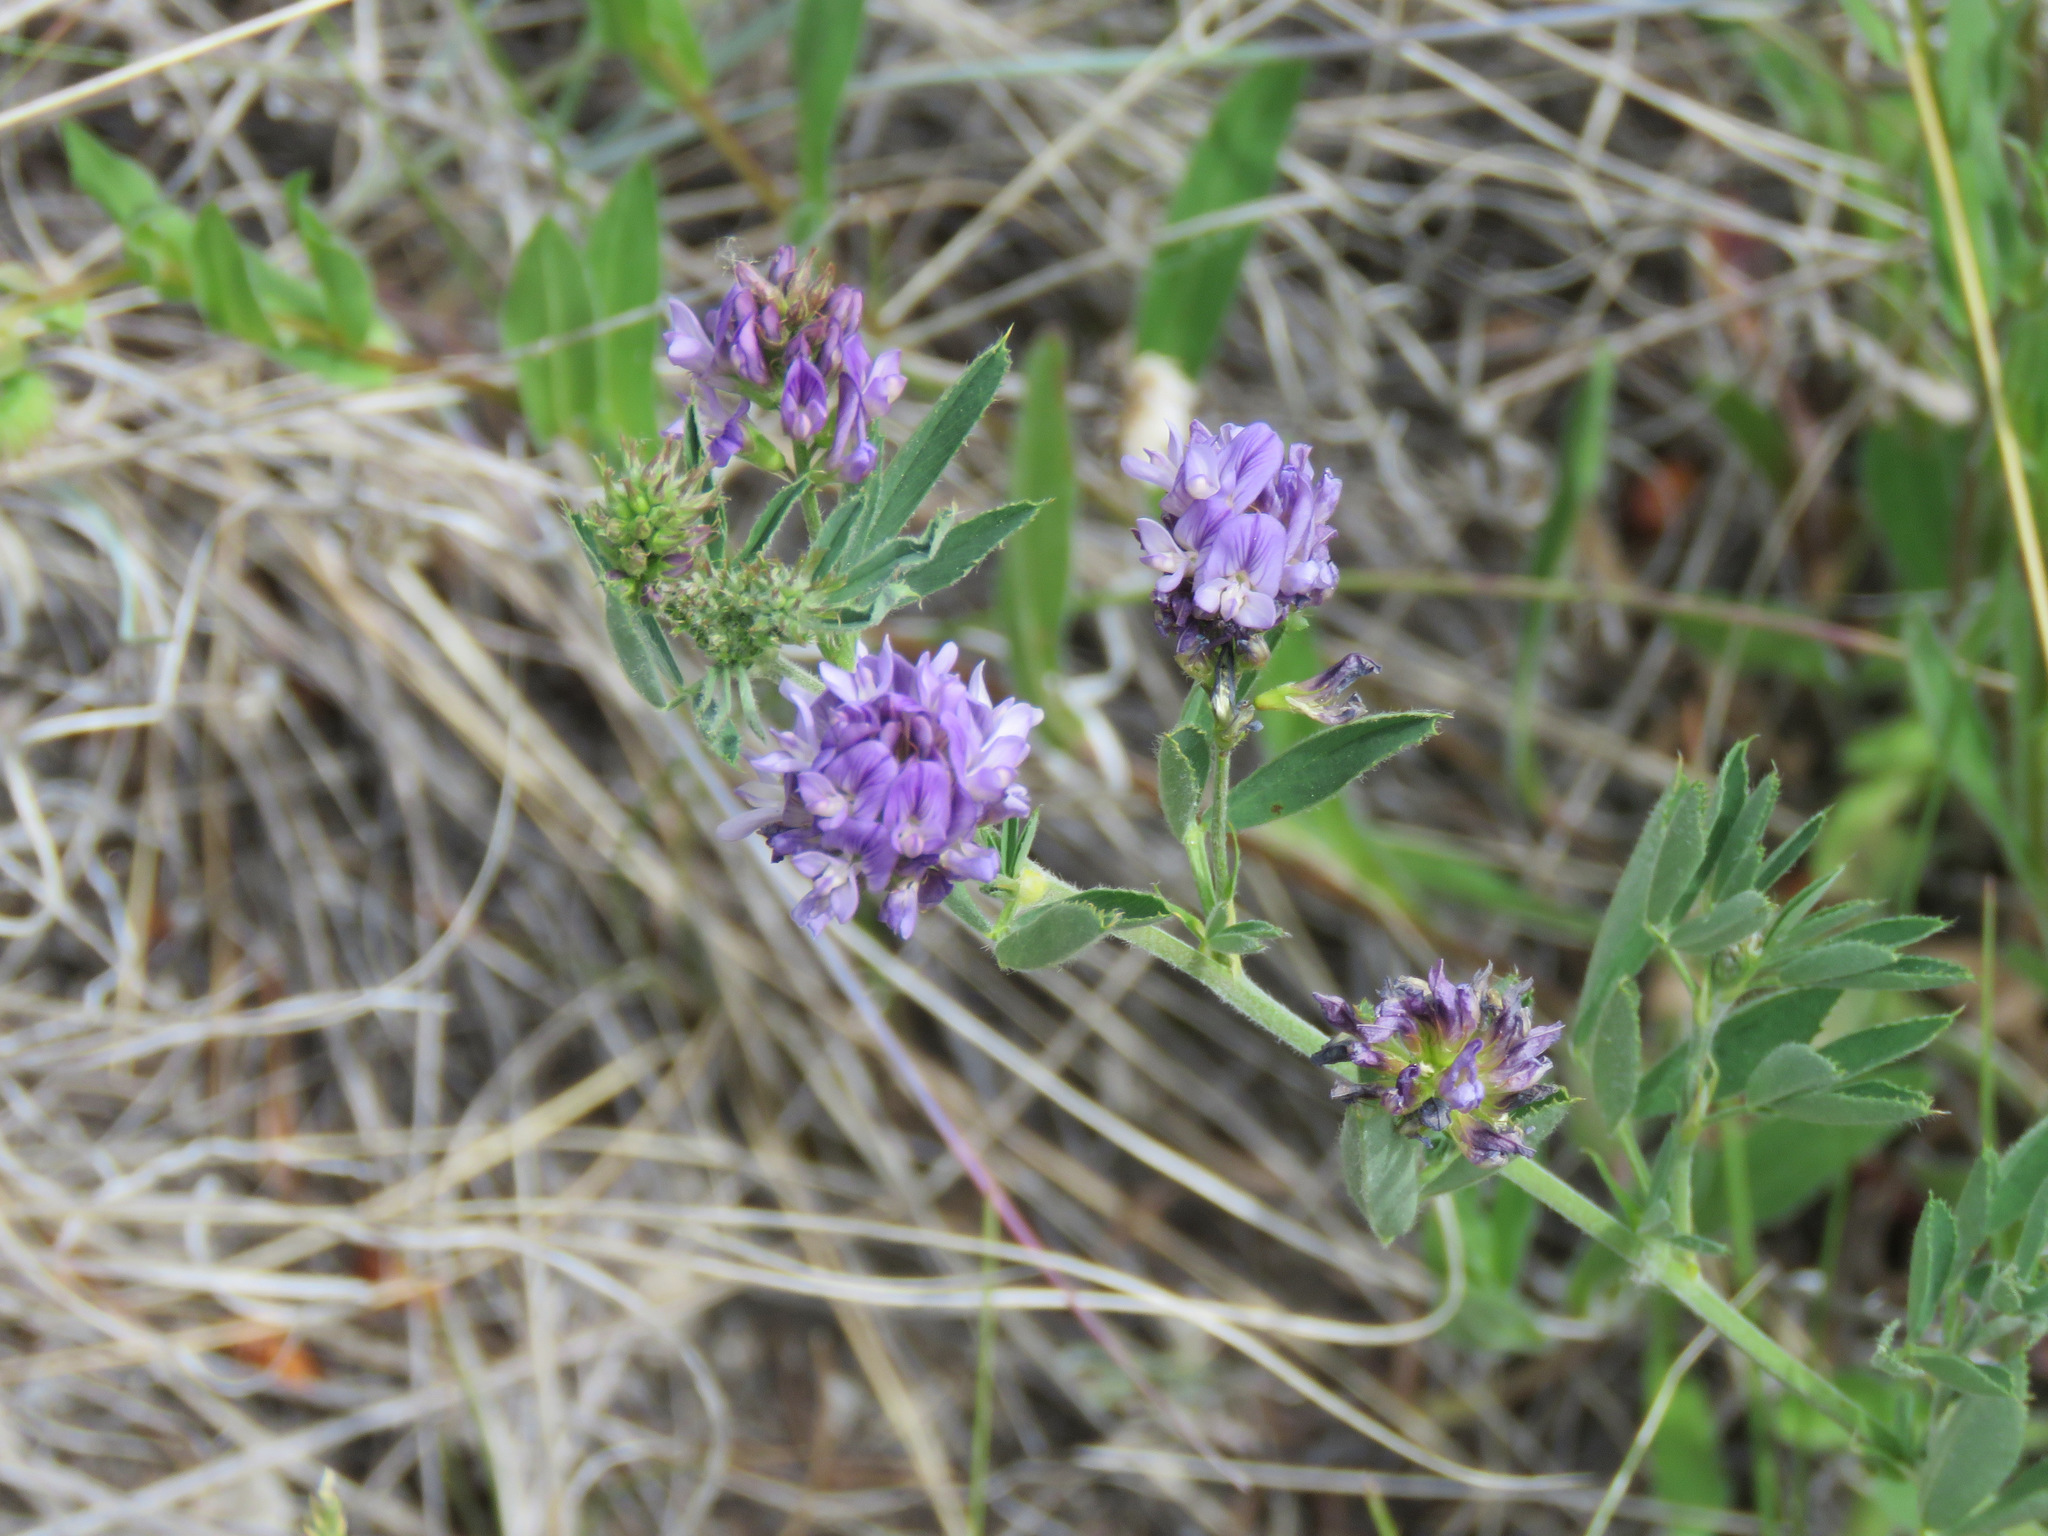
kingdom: Plantae
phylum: Tracheophyta
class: Magnoliopsida
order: Fabales
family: Fabaceae
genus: Medicago
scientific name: Medicago sativa
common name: Alfalfa
